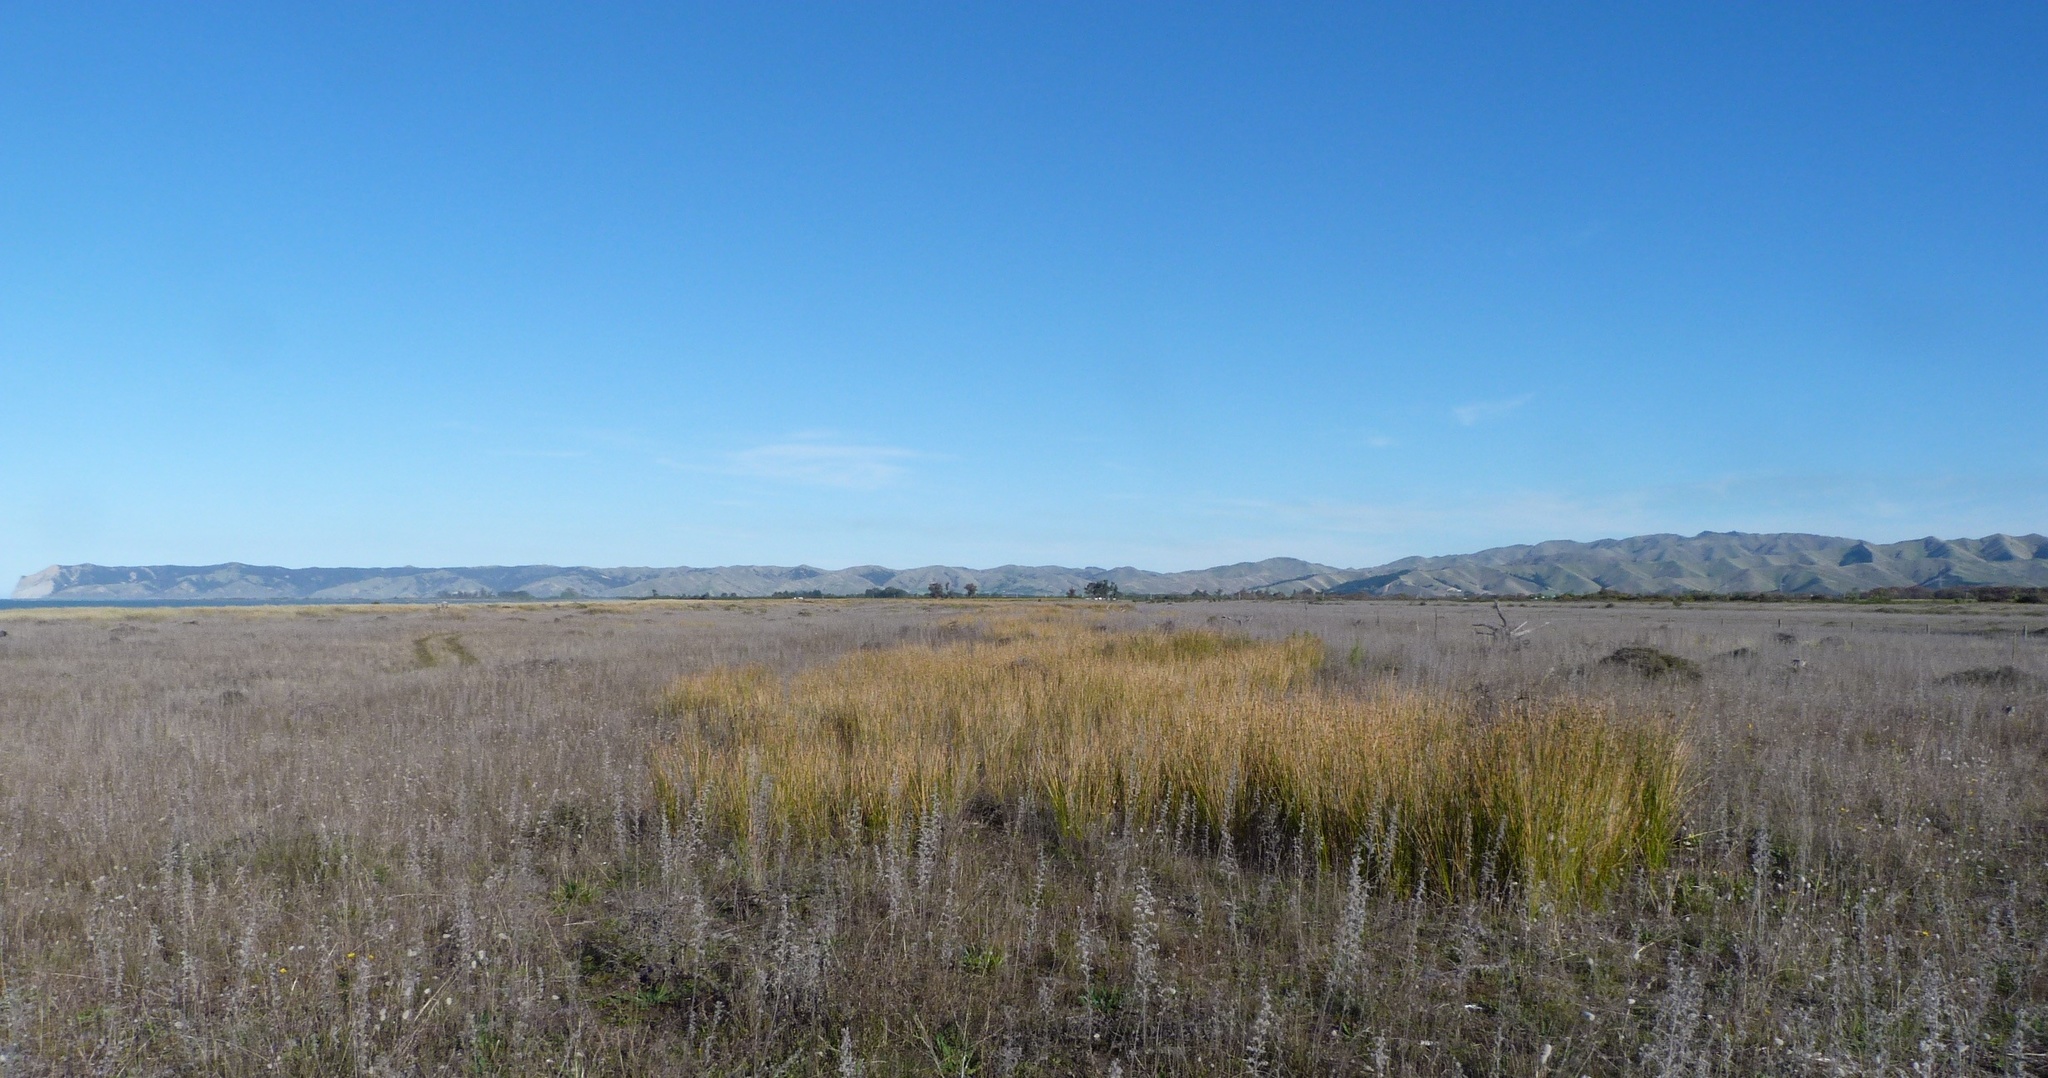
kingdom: Plantae
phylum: Tracheophyta
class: Liliopsida
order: Poales
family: Cyperaceae
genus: Ficinia
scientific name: Ficinia nodosa
